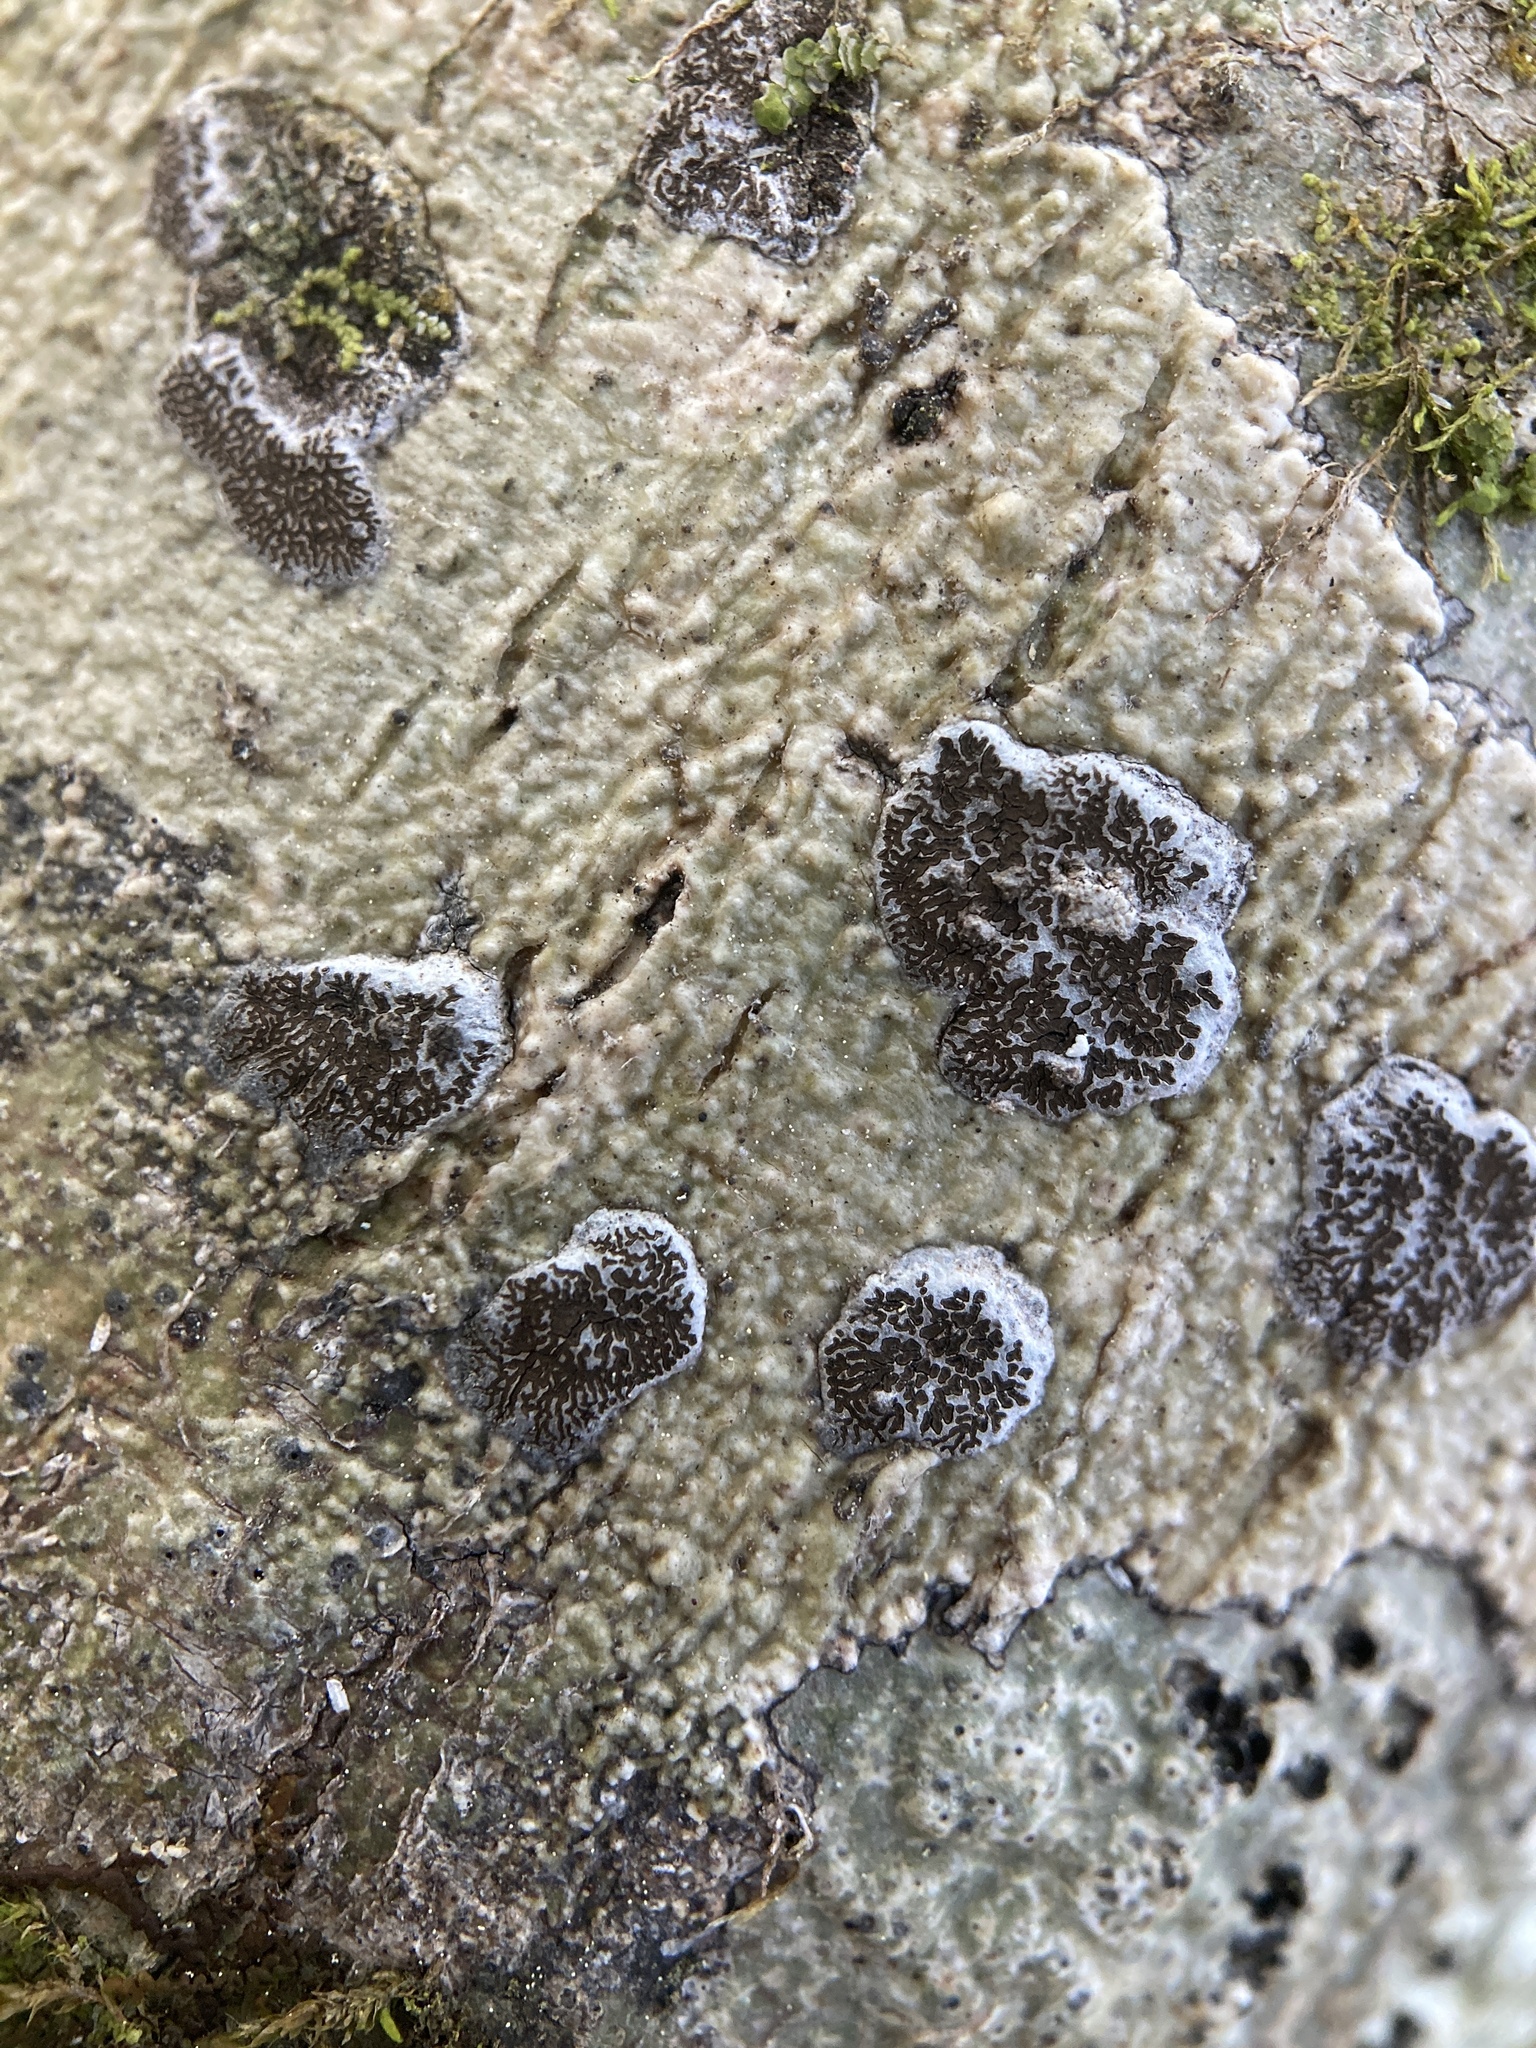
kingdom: Fungi
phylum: Ascomycota
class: Lecanoromycetes
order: Ostropales
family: Graphidaceae
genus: Glyphis
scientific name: Glyphis cicatricosa
